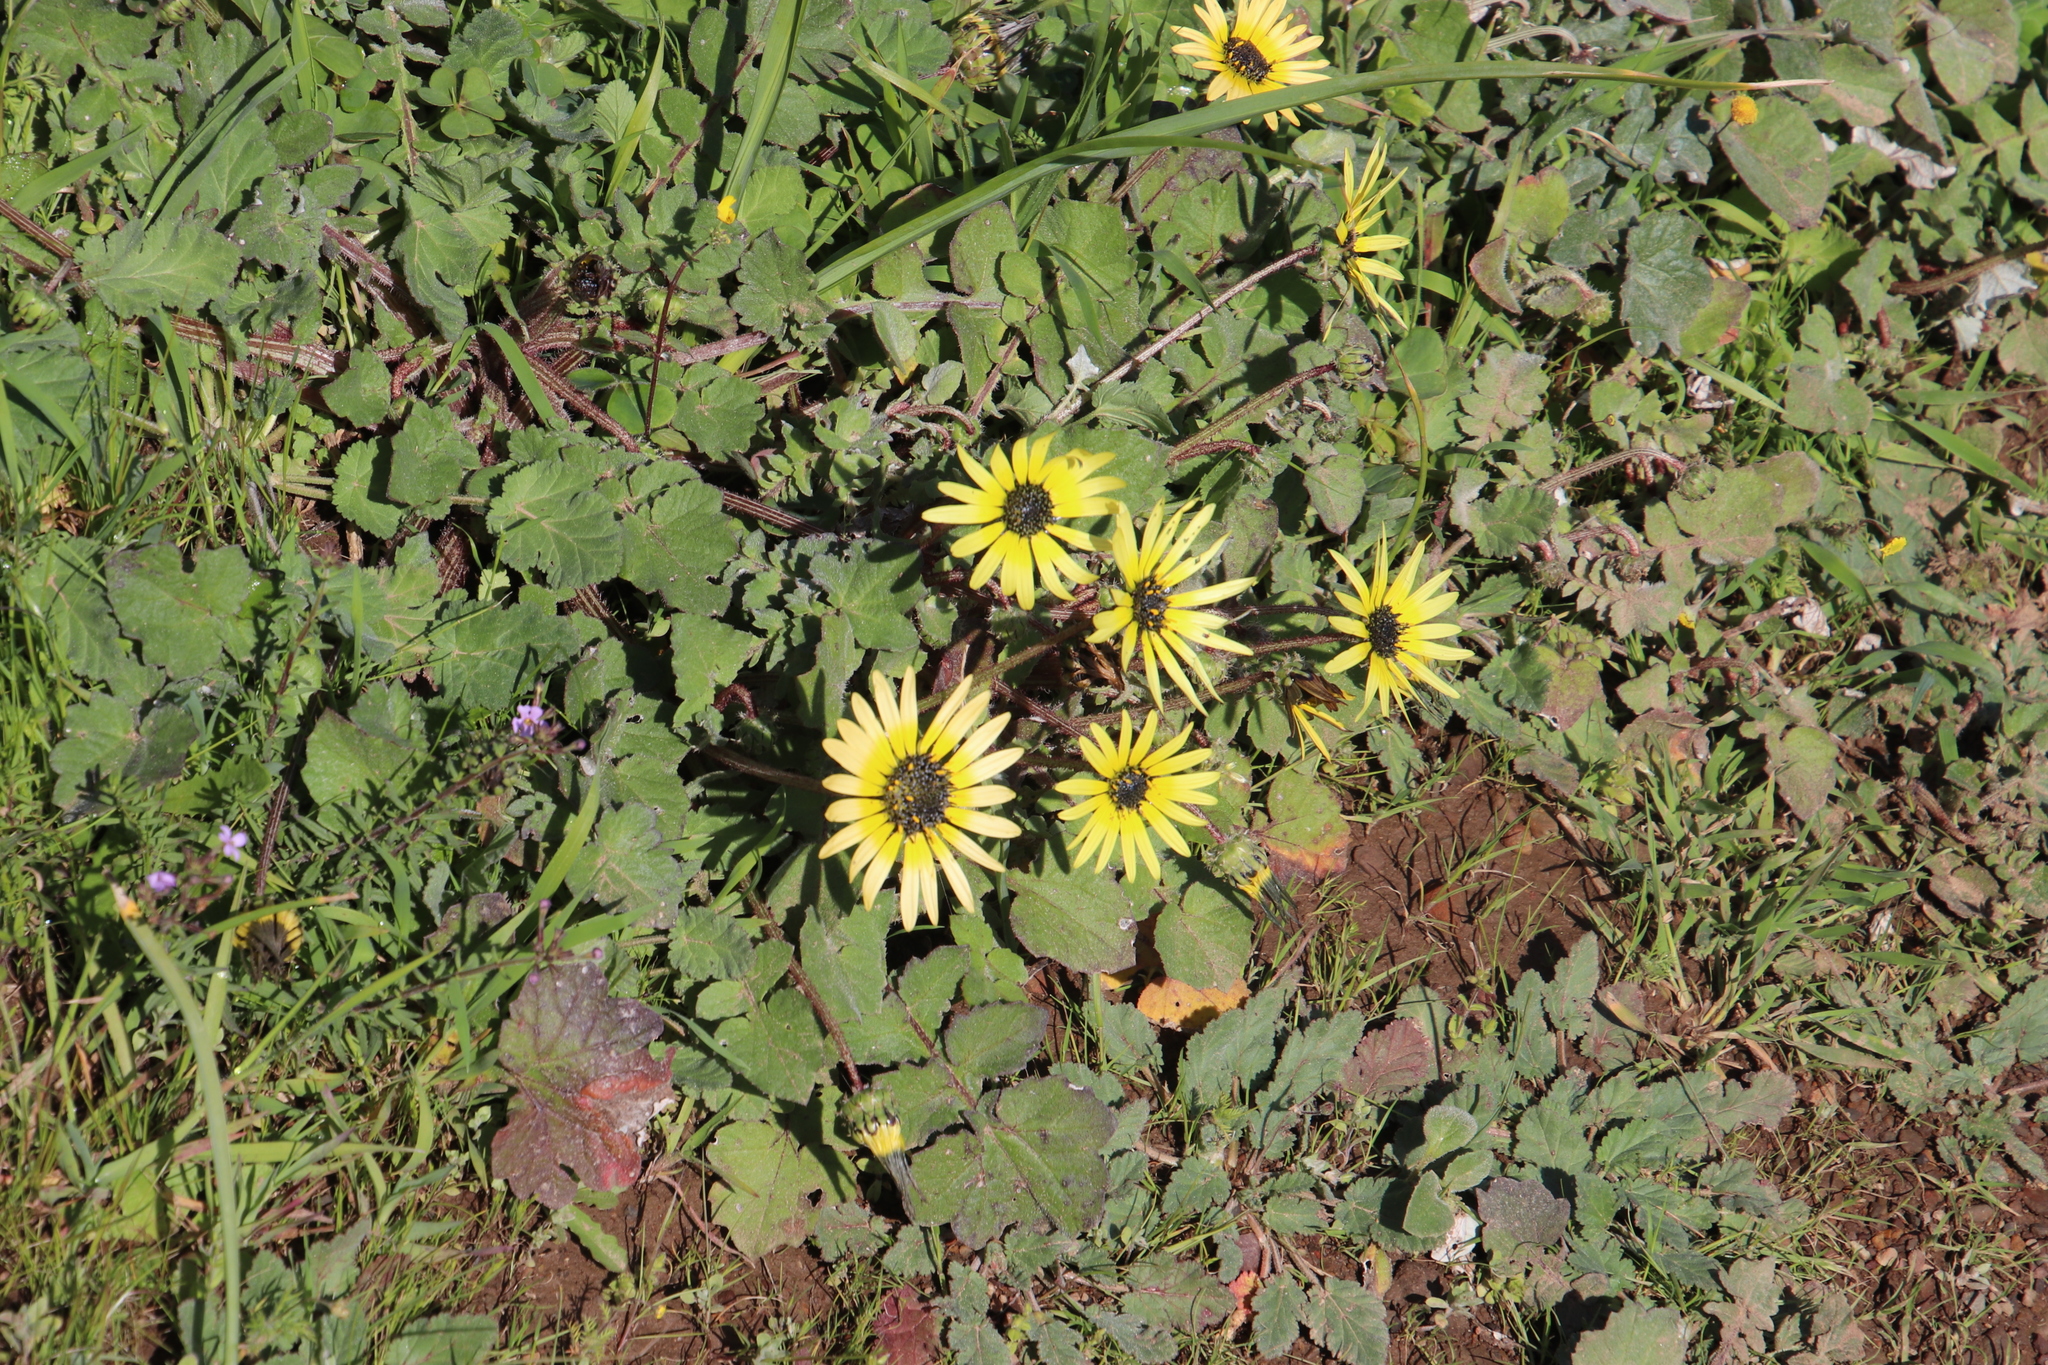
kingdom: Plantae
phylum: Tracheophyta
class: Magnoliopsida
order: Asterales
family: Asteraceae
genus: Arctotheca
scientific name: Arctotheca calendula
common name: Capeweed
